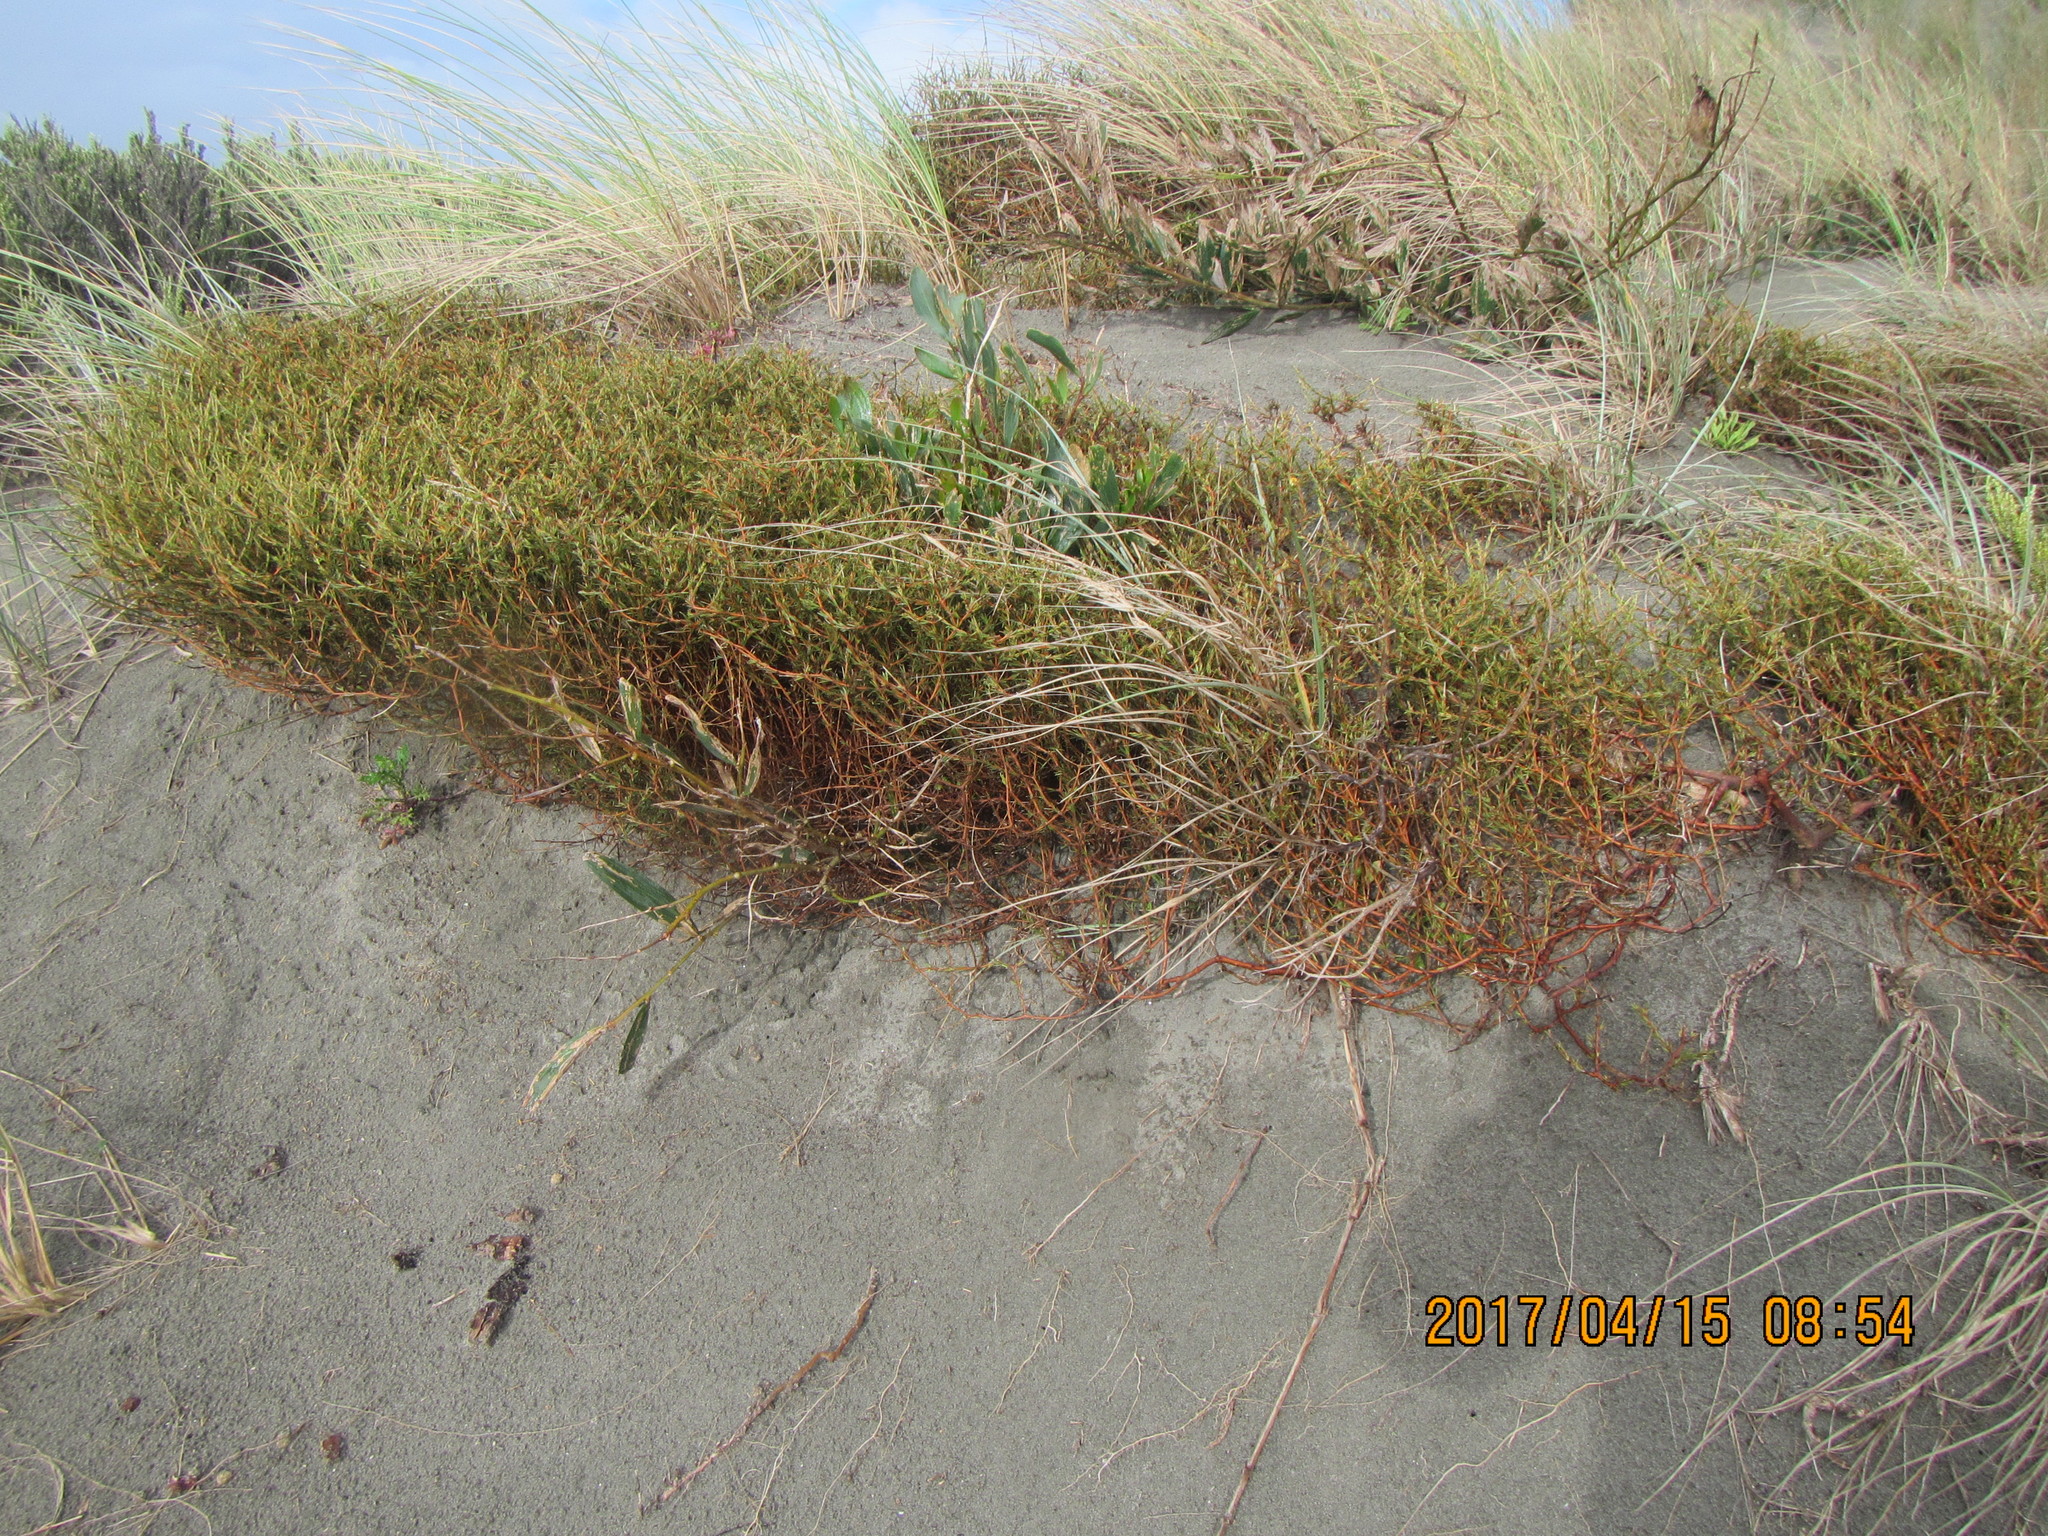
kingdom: Plantae
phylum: Tracheophyta
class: Magnoliopsida
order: Gentianales
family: Rubiaceae
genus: Coprosma
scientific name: Coprosma acerosa
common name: Sand coprosma
